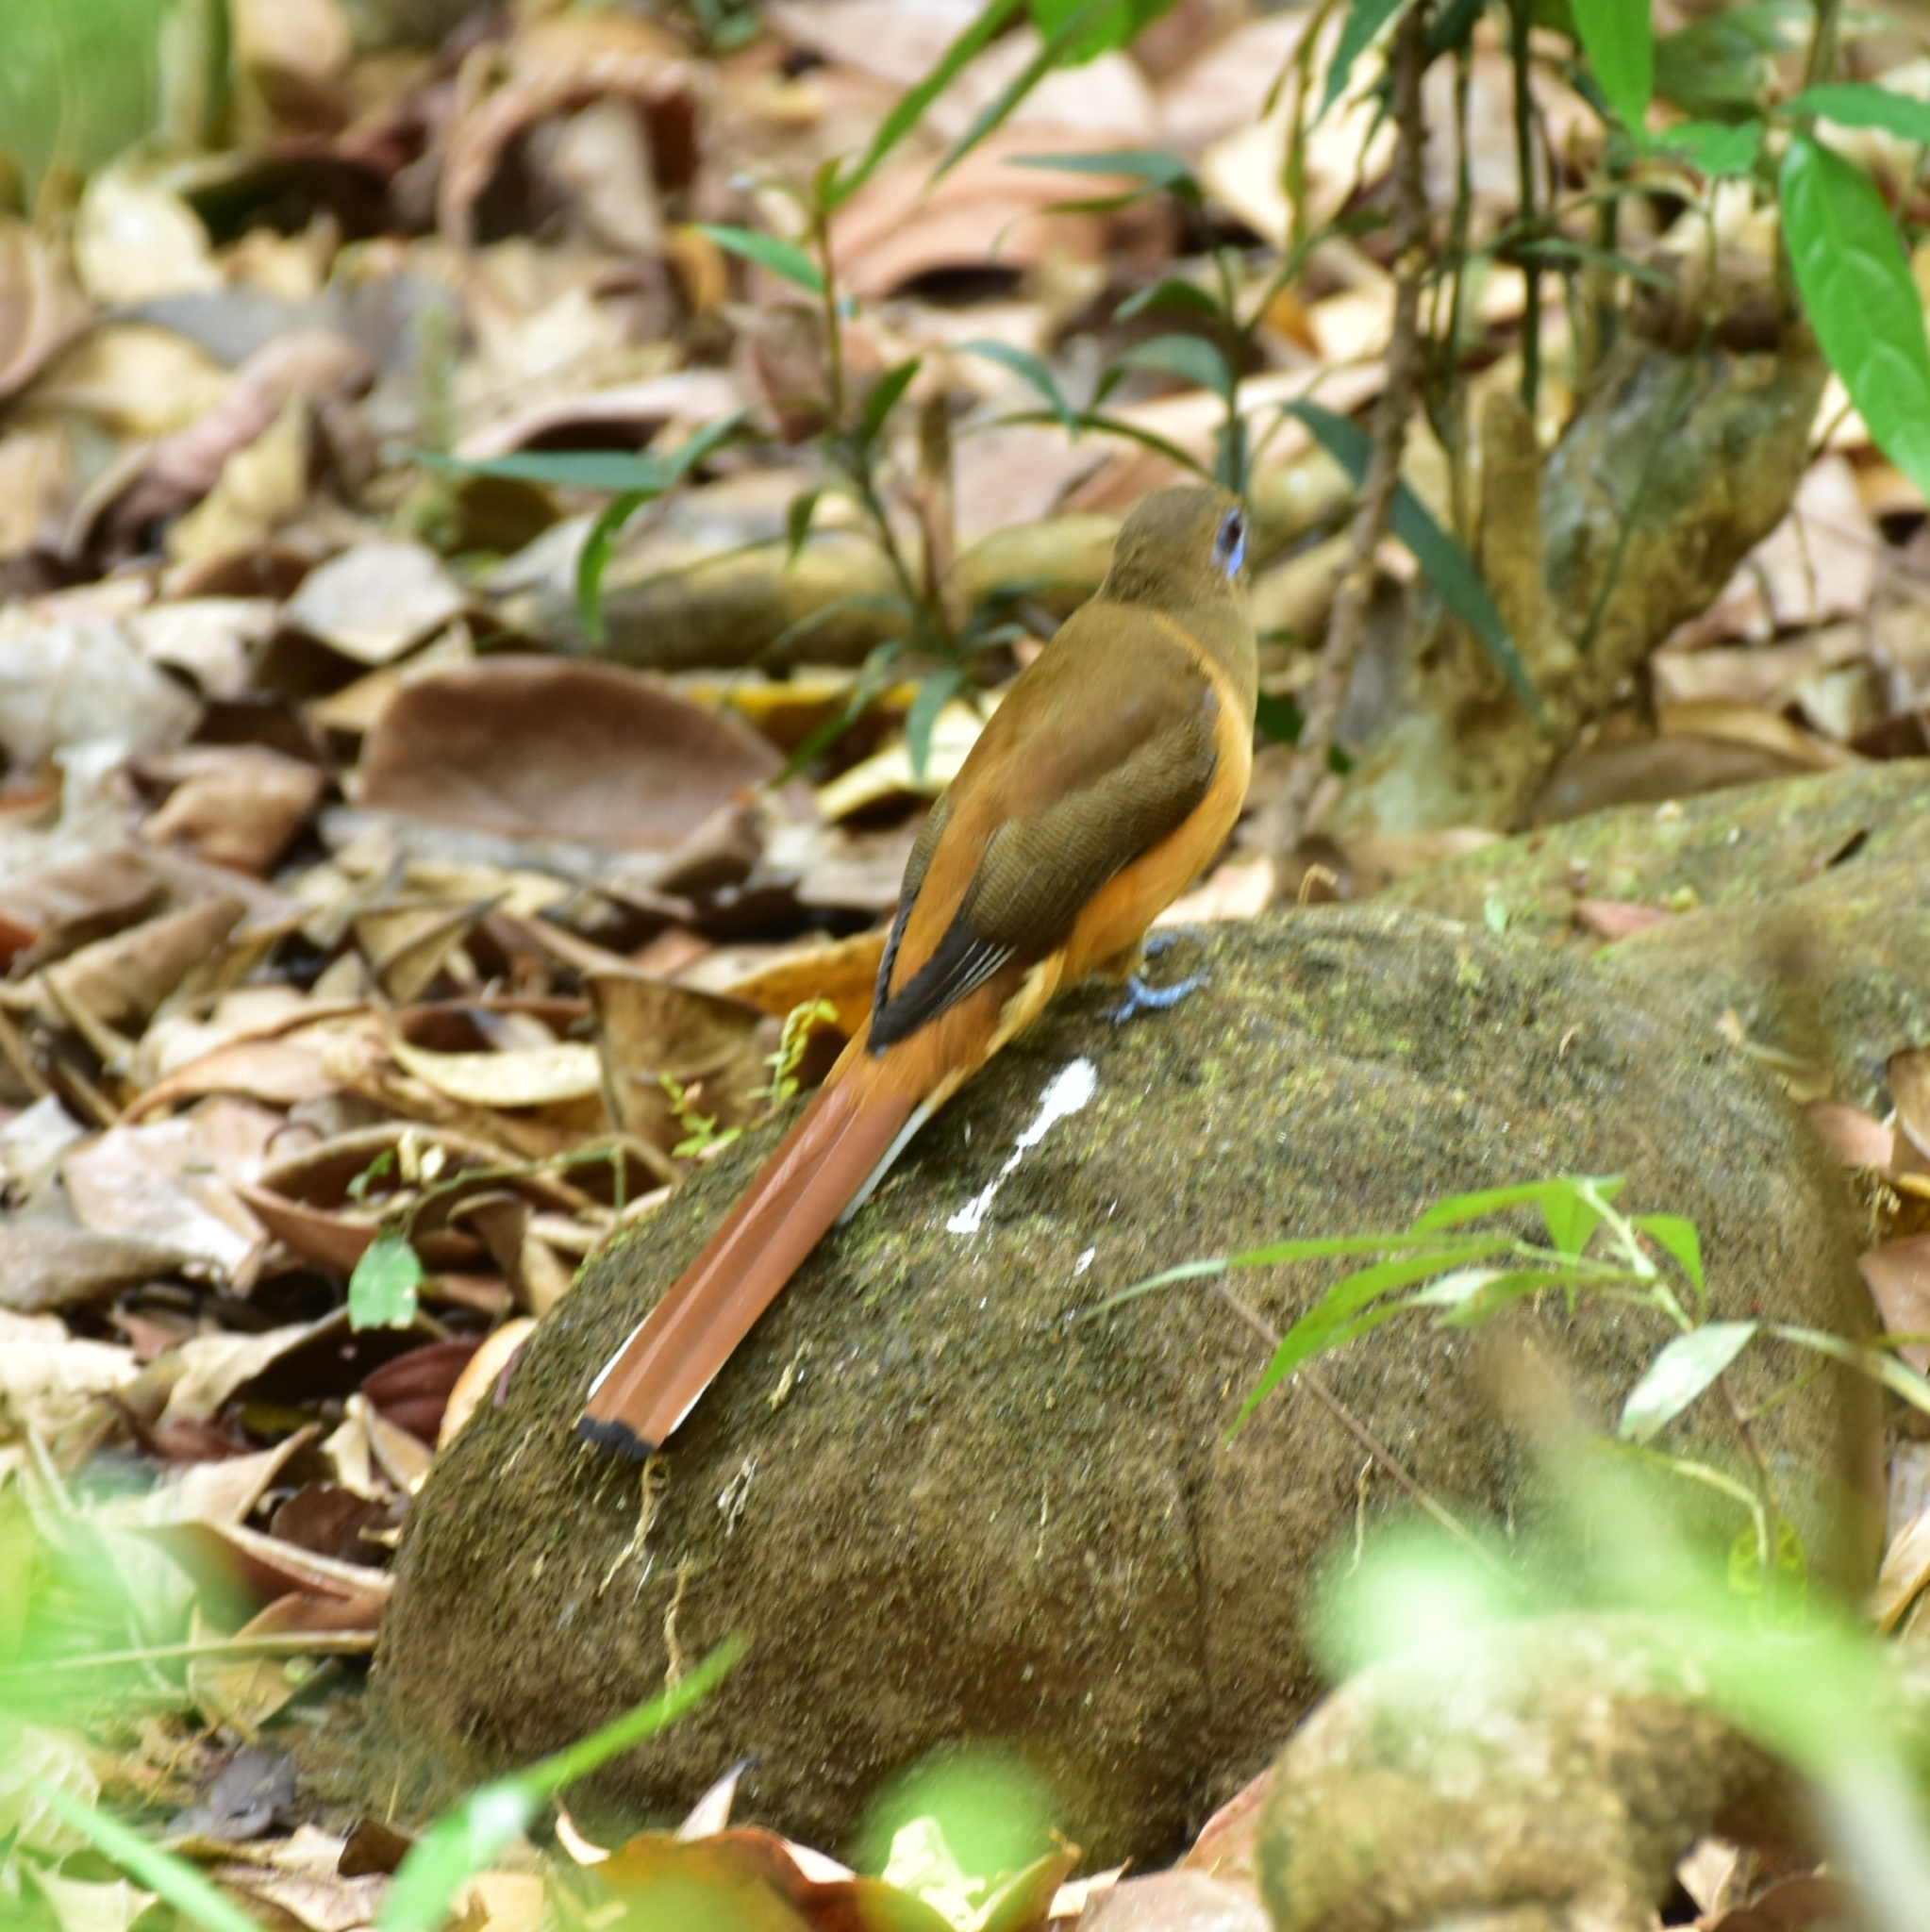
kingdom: Animalia
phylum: Chordata
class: Aves
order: Trogoniformes
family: Trogonidae
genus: Harpactes
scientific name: Harpactes fasciatus
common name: Malabar trogon
